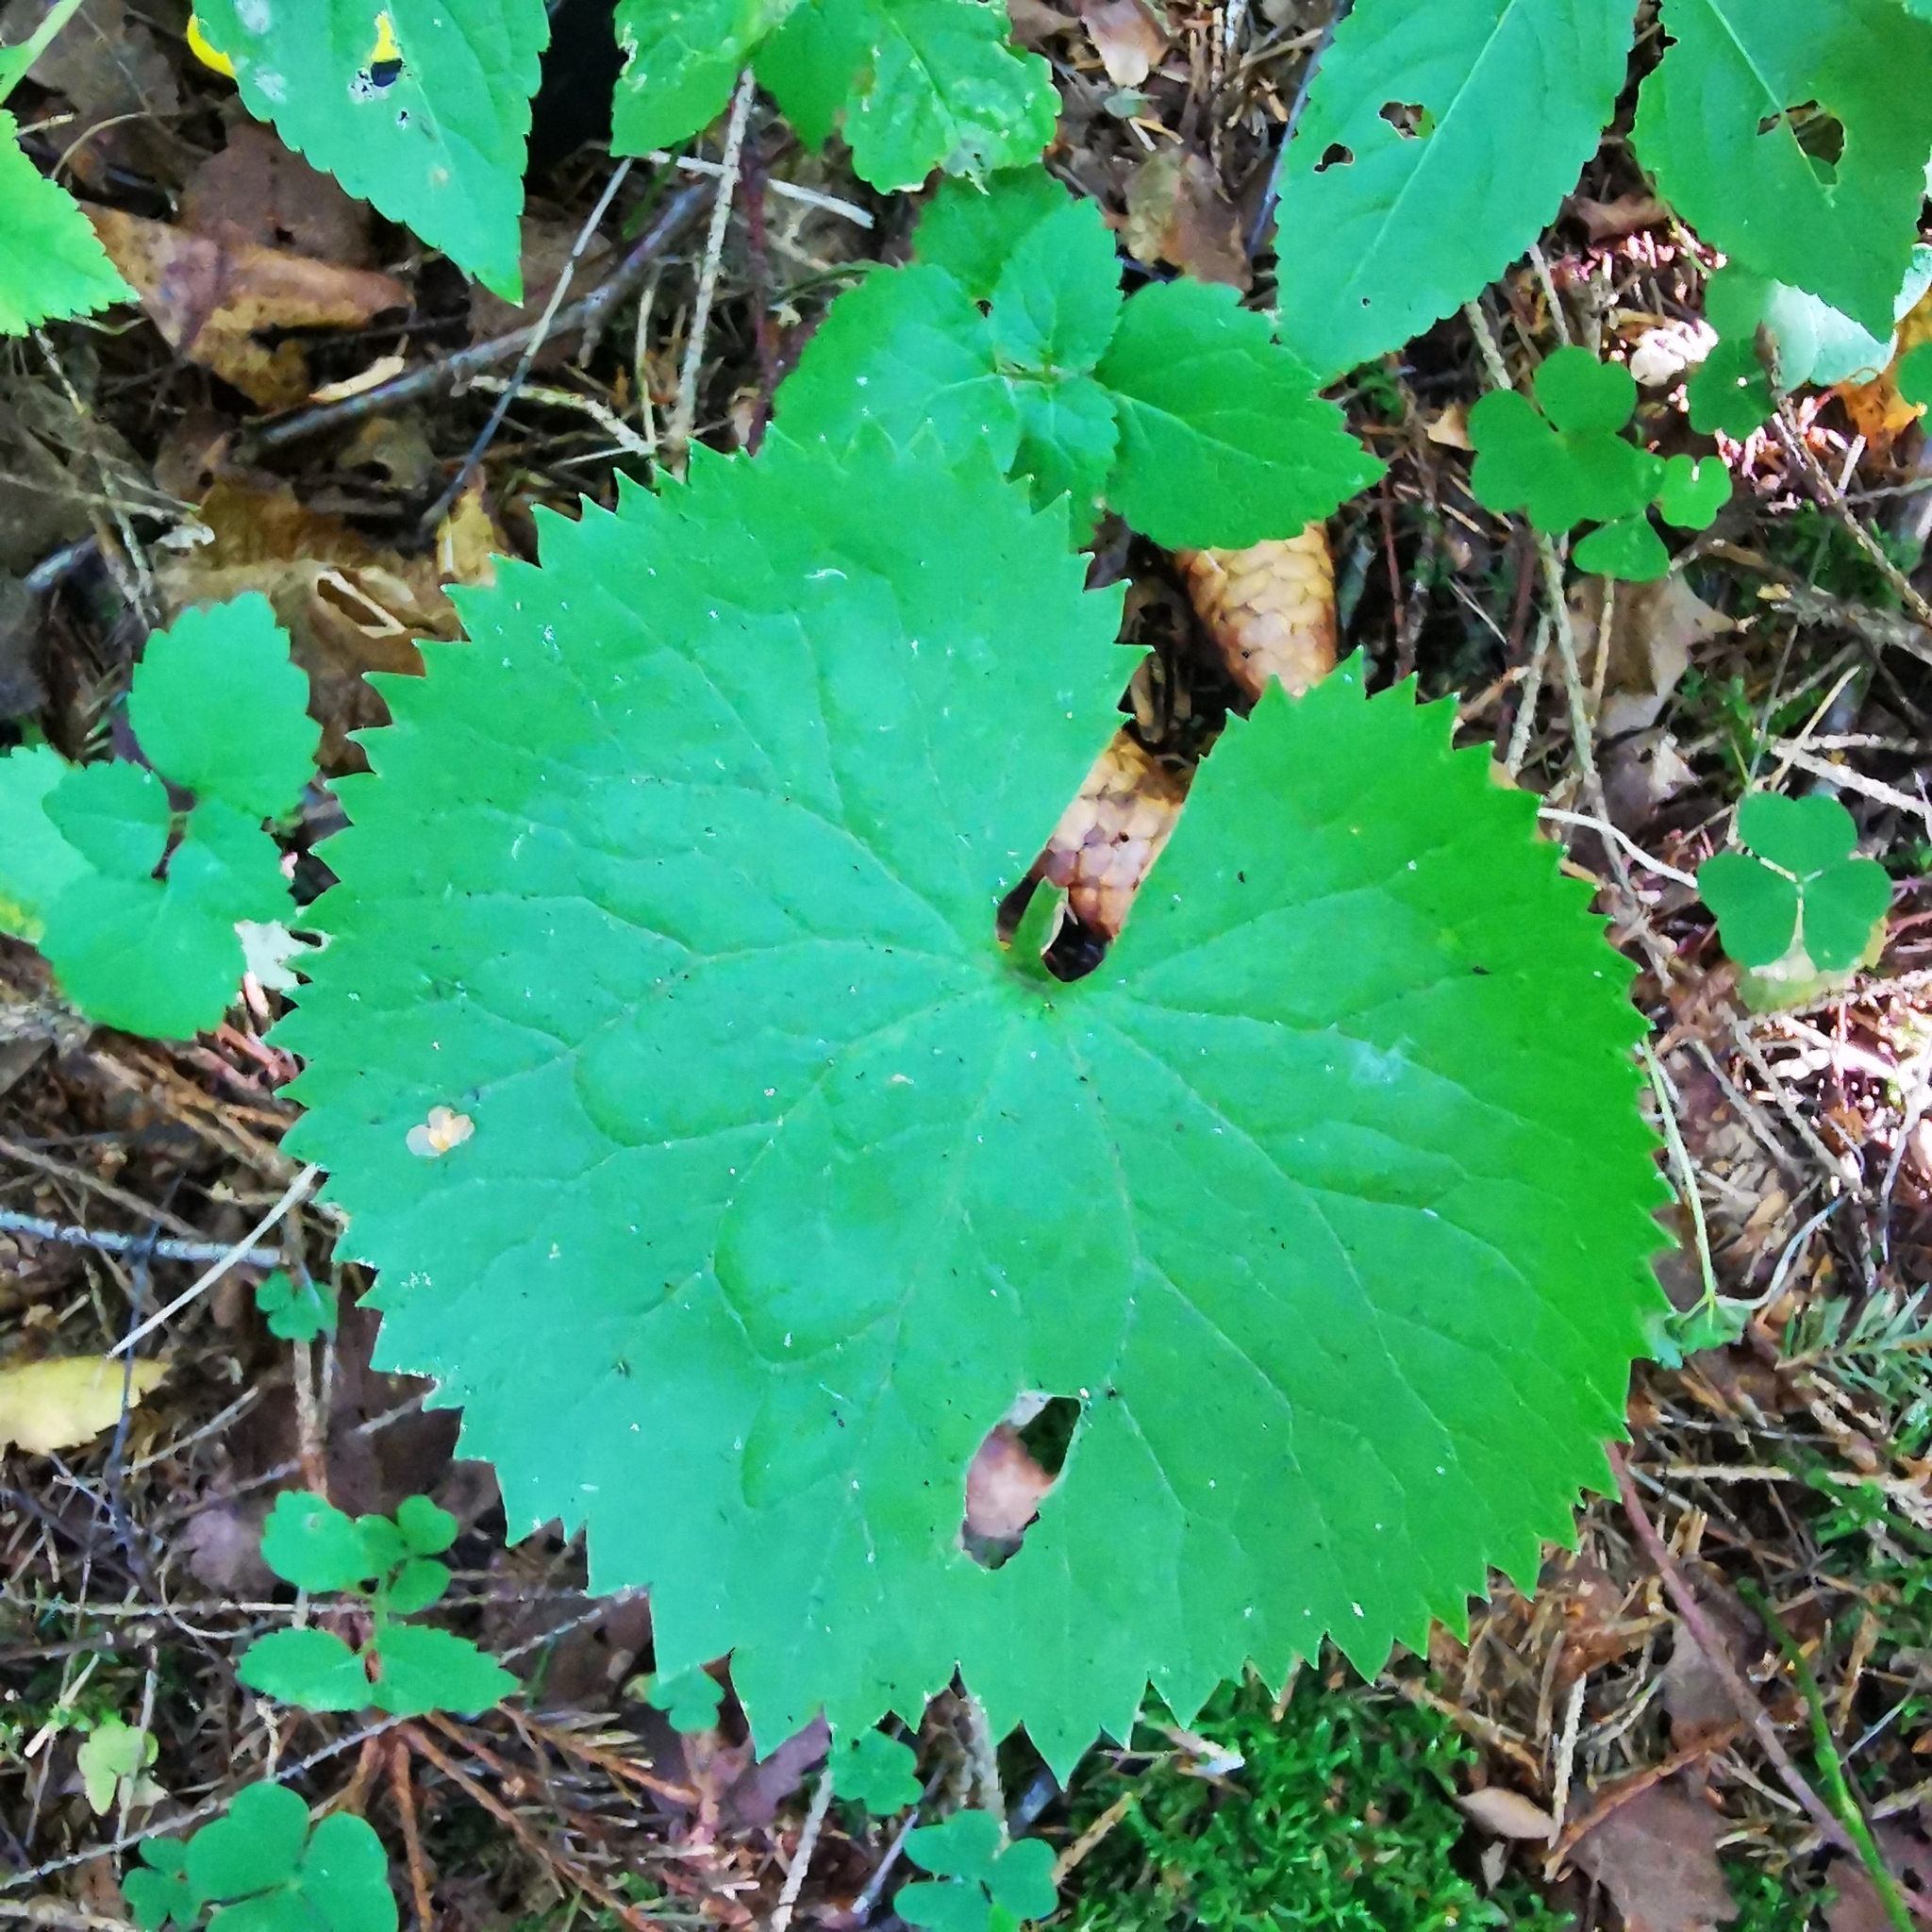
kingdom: Plantae
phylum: Tracheophyta
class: Magnoliopsida
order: Ranunculales
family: Ranunculaceae
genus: Ranunculus
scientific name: Ranunculus cassubicus
